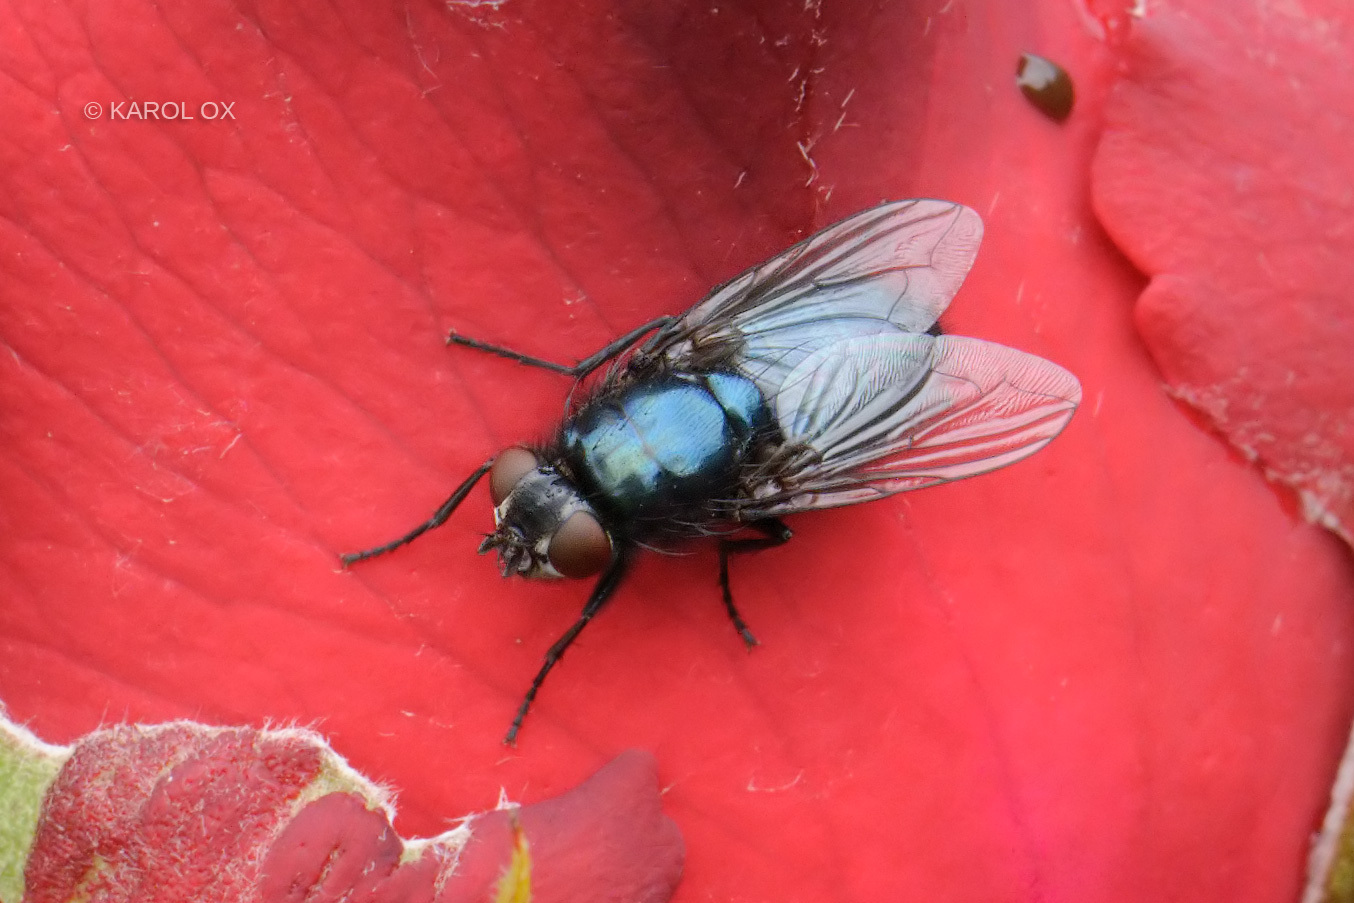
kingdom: Animalia
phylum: Arthropoda
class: Insecta
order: Diptera
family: Calliphoridae
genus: Protophormia
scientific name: Protophormia terraenovae
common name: Blackbottle
